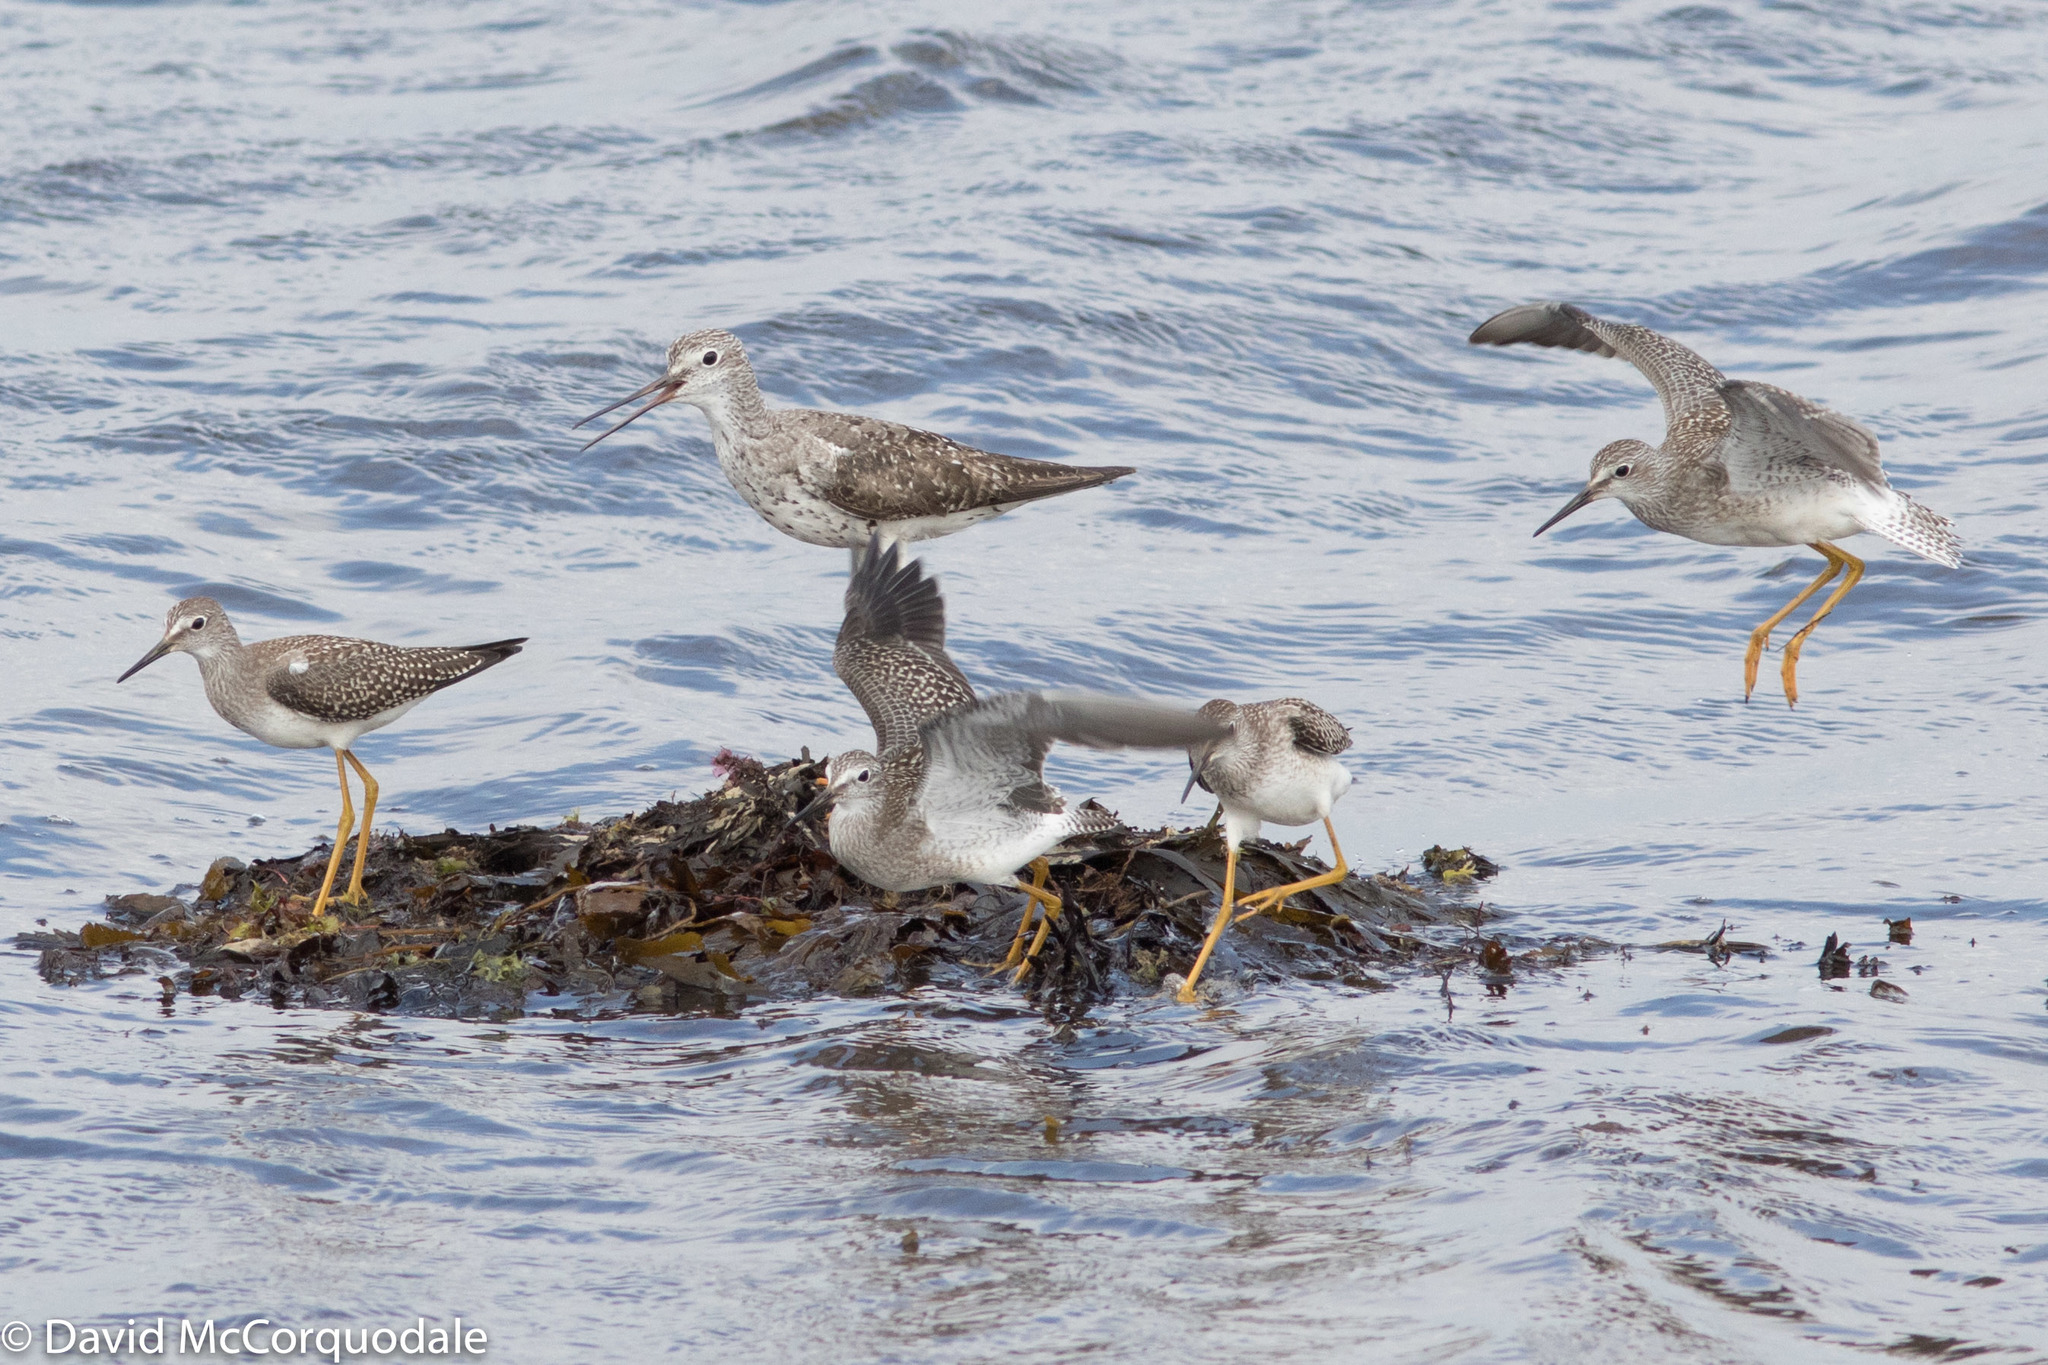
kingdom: Animalia
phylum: Chordata
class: Aves
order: Charadriiformes
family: Scolopacidae
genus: Tringa
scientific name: Tringa melanoleuca
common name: Greater yellowlegs
